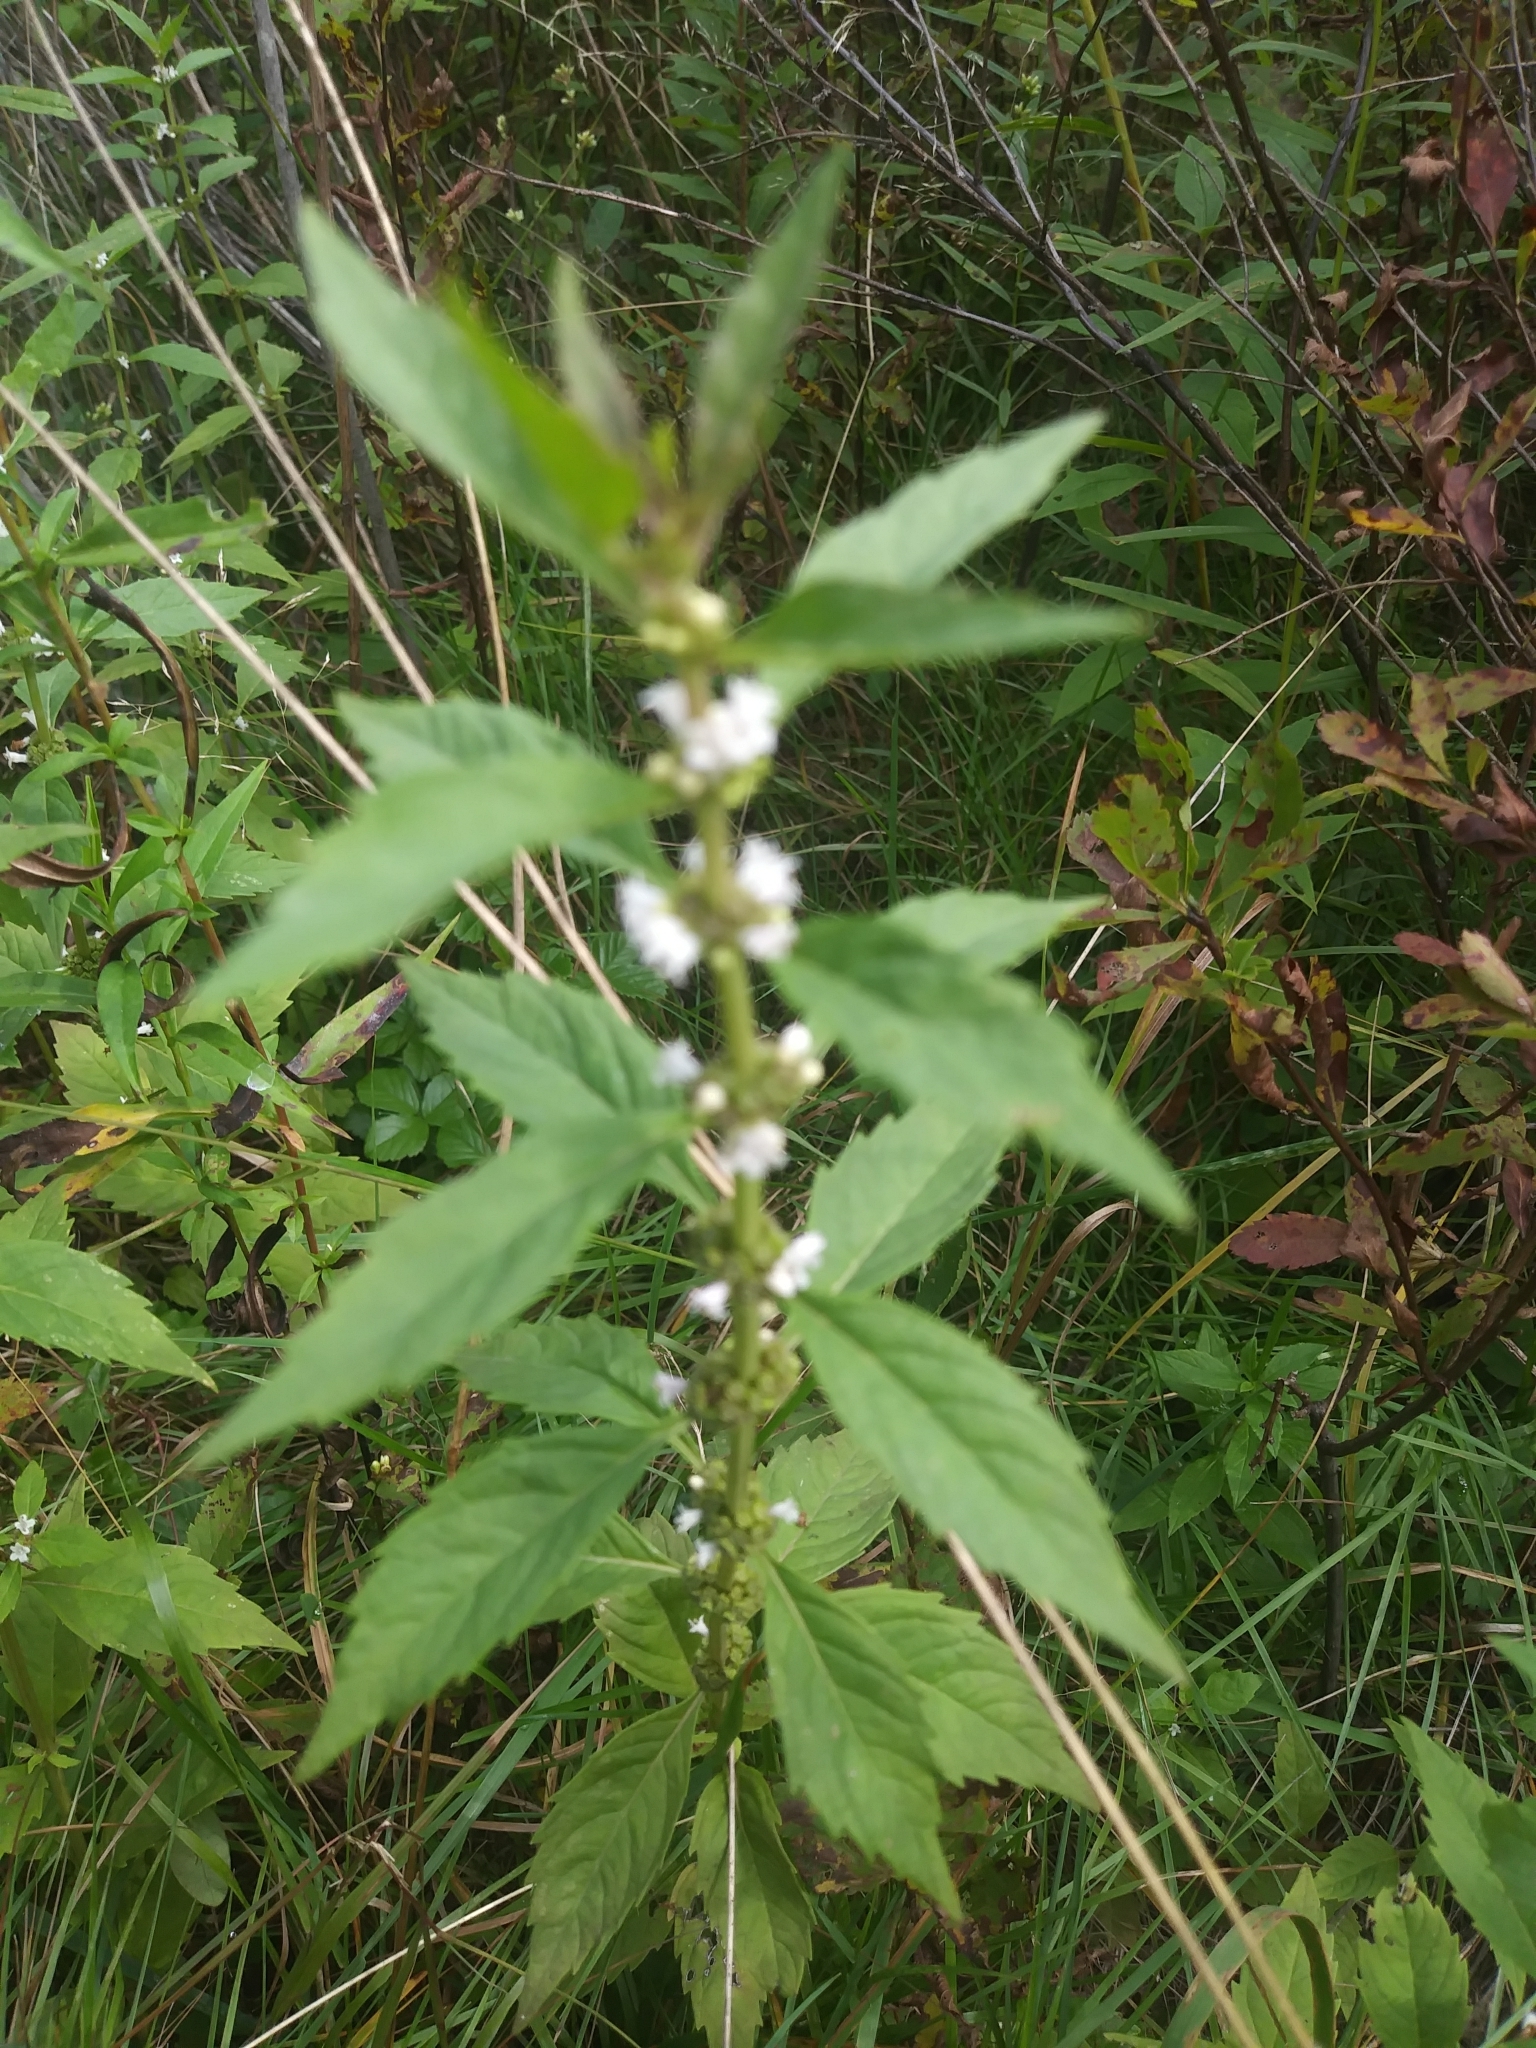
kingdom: Plantae
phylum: Tracheophyta
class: Magnoliopsida
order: Lamiales
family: Lamiaceae
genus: Lycopus
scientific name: Lycopus virginicus
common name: Bugleweed
